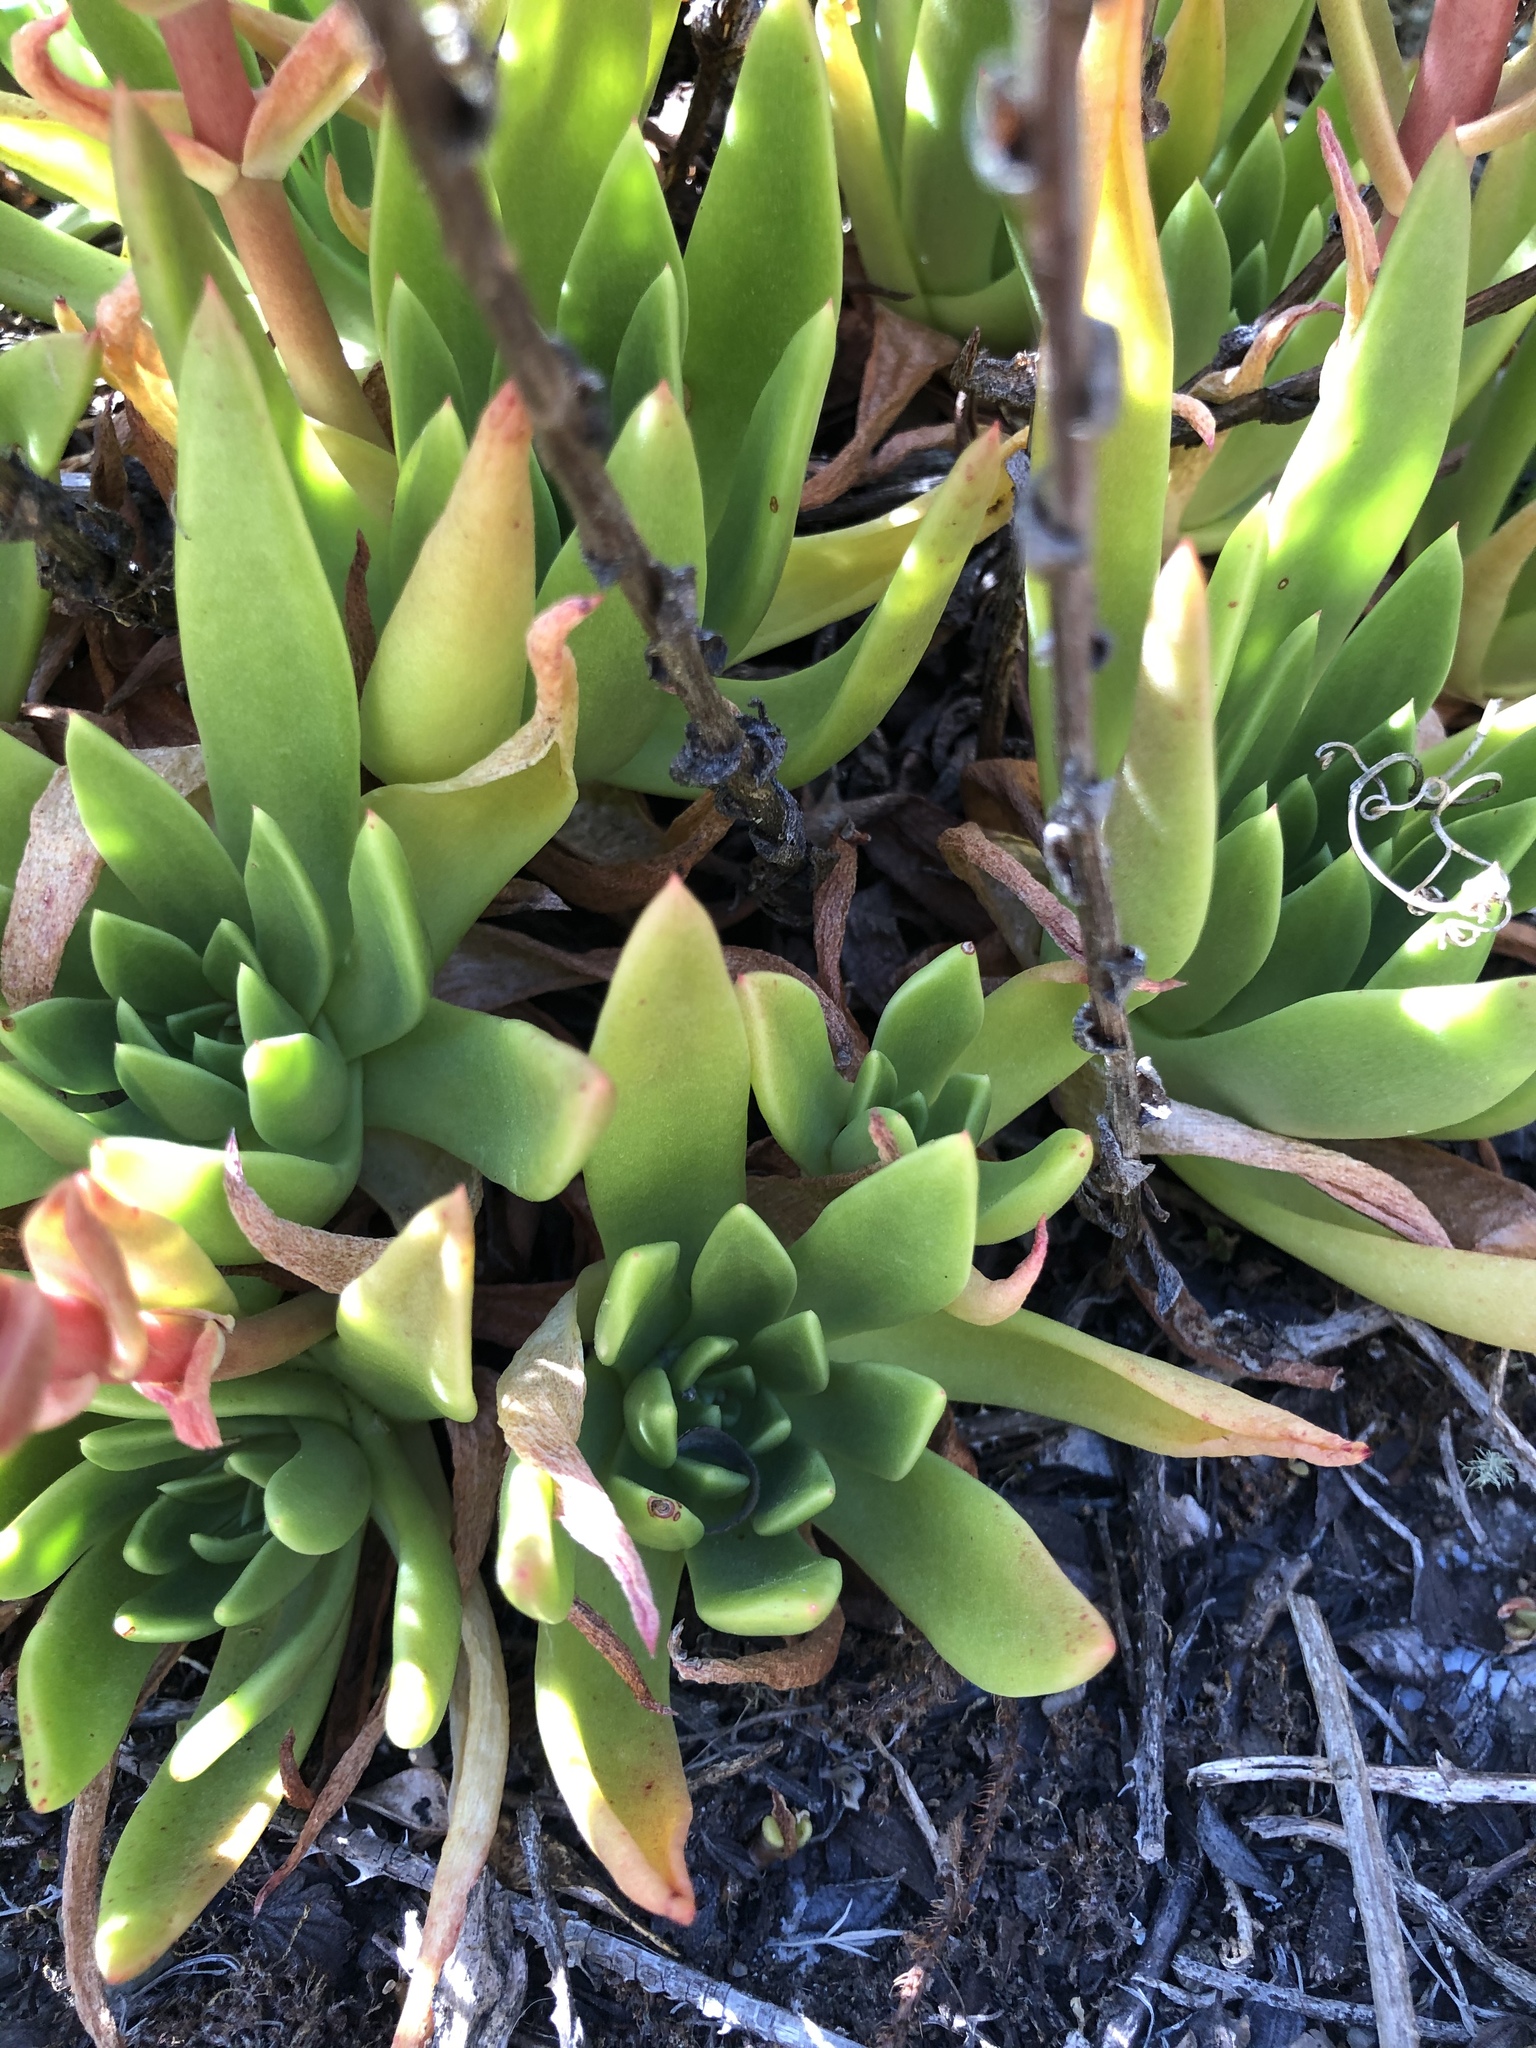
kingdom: Plantae
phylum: Tracheophyta
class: Magnoliopsida
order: Saxifragales
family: Crassulaceae
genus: Dudleya
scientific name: Dudleya farinosa
